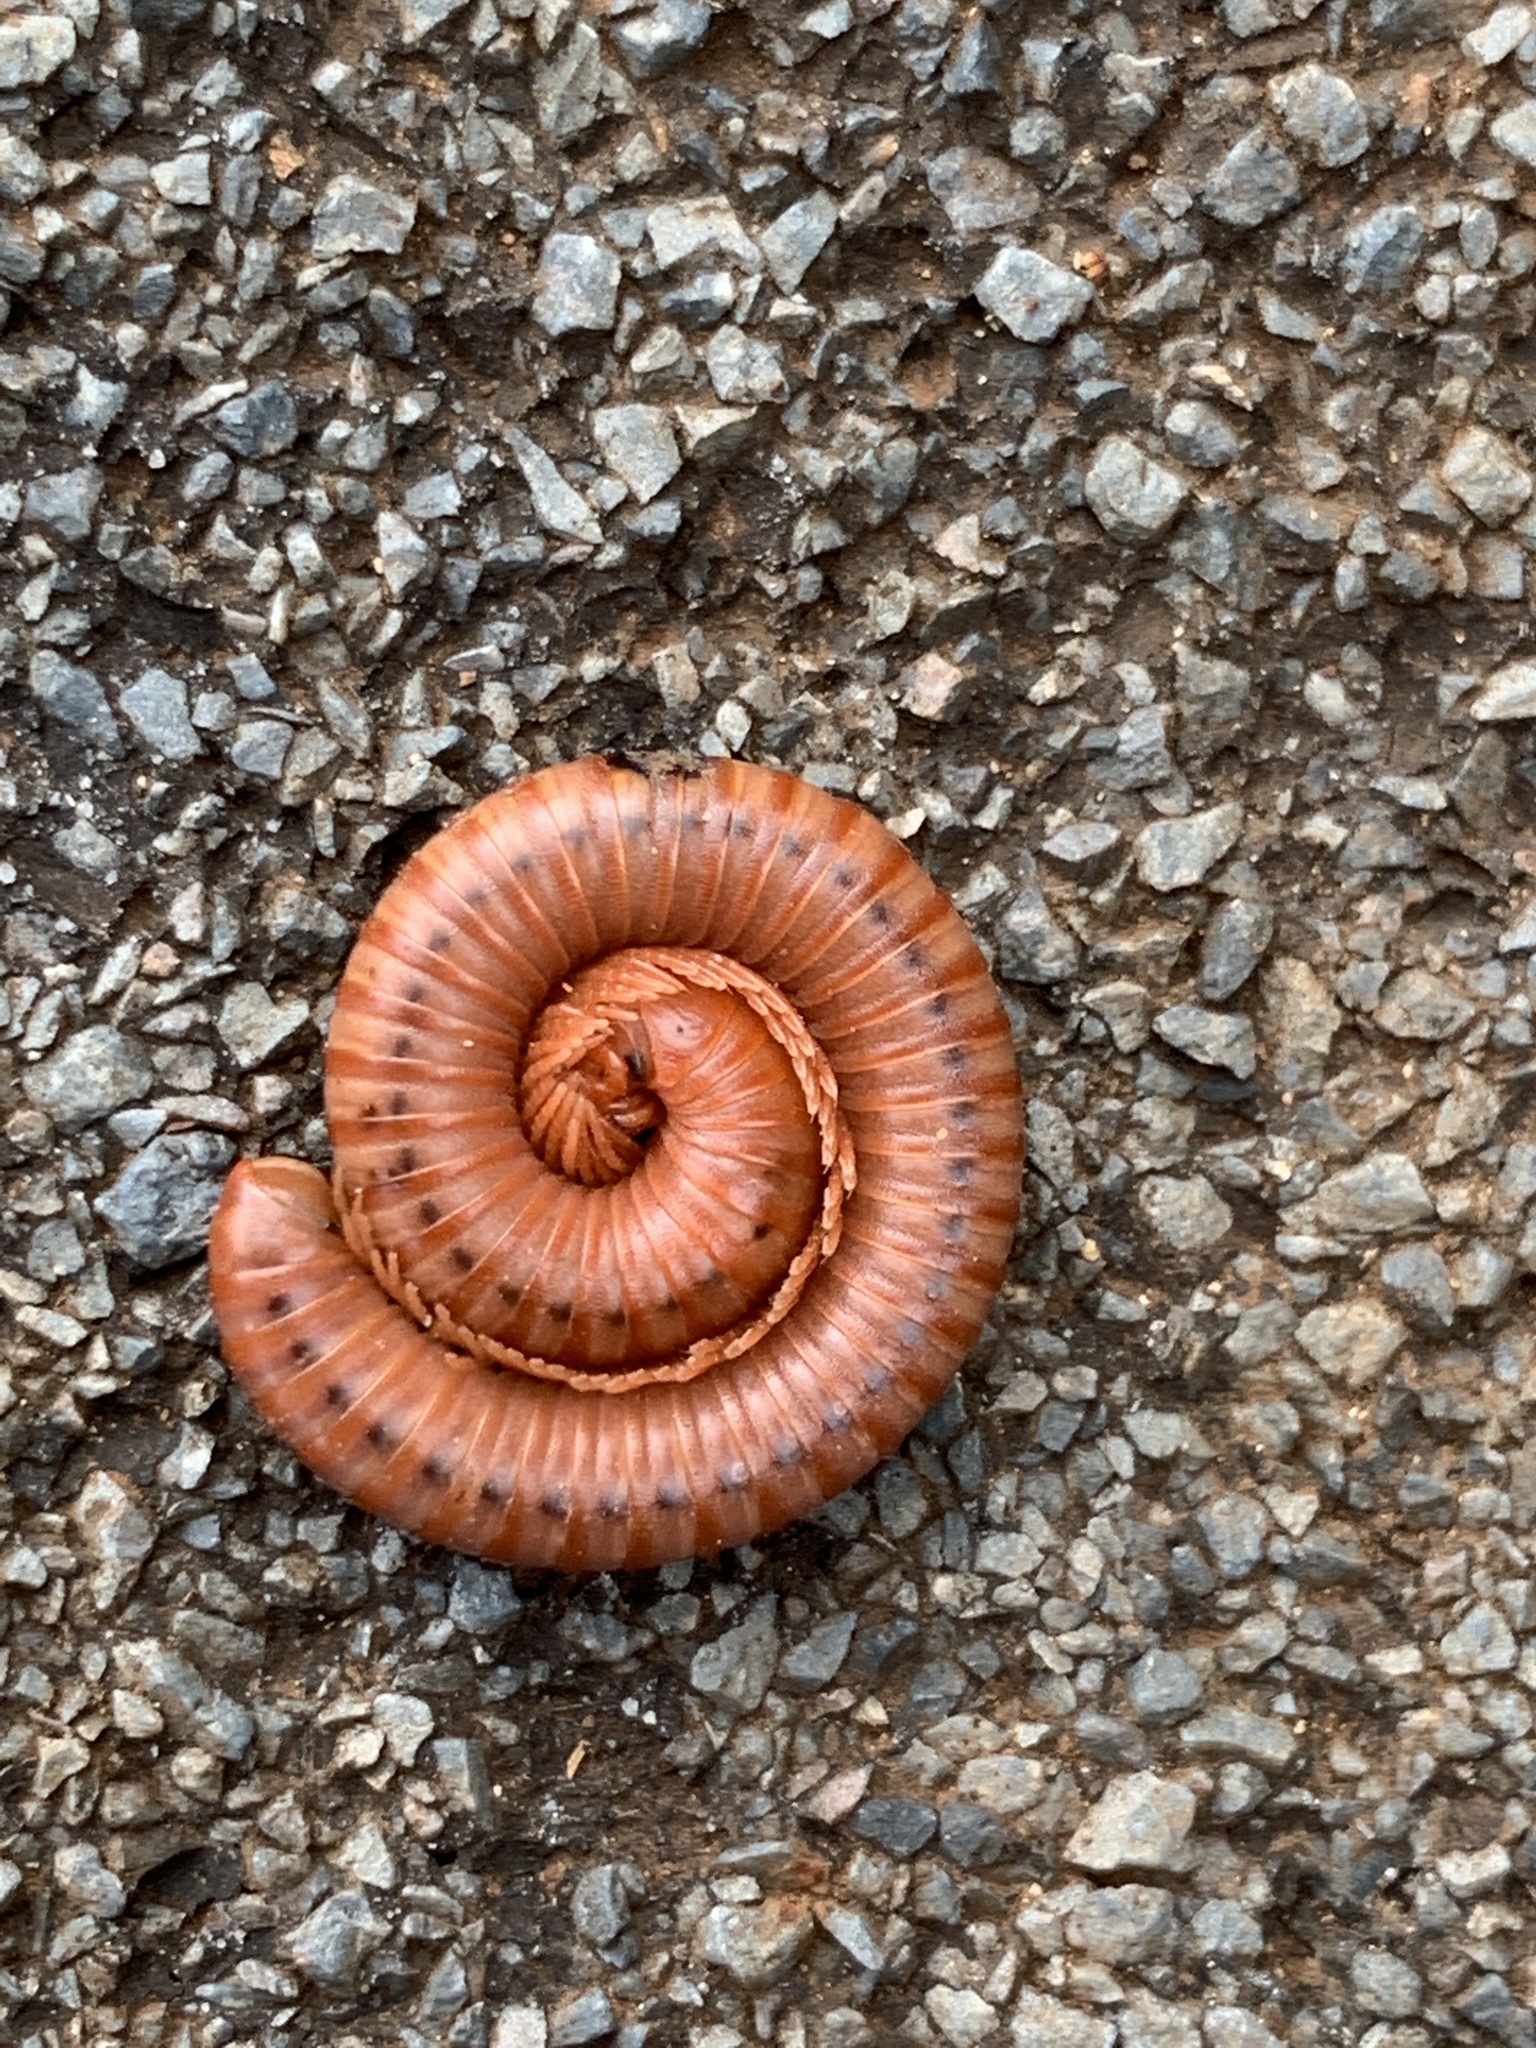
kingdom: Animalia
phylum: Arthropoda
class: Diplopoda
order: Spirobolida
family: Pachybolidae
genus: Trigoniulus
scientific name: Trigoniulus corallinus
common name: Millipede
